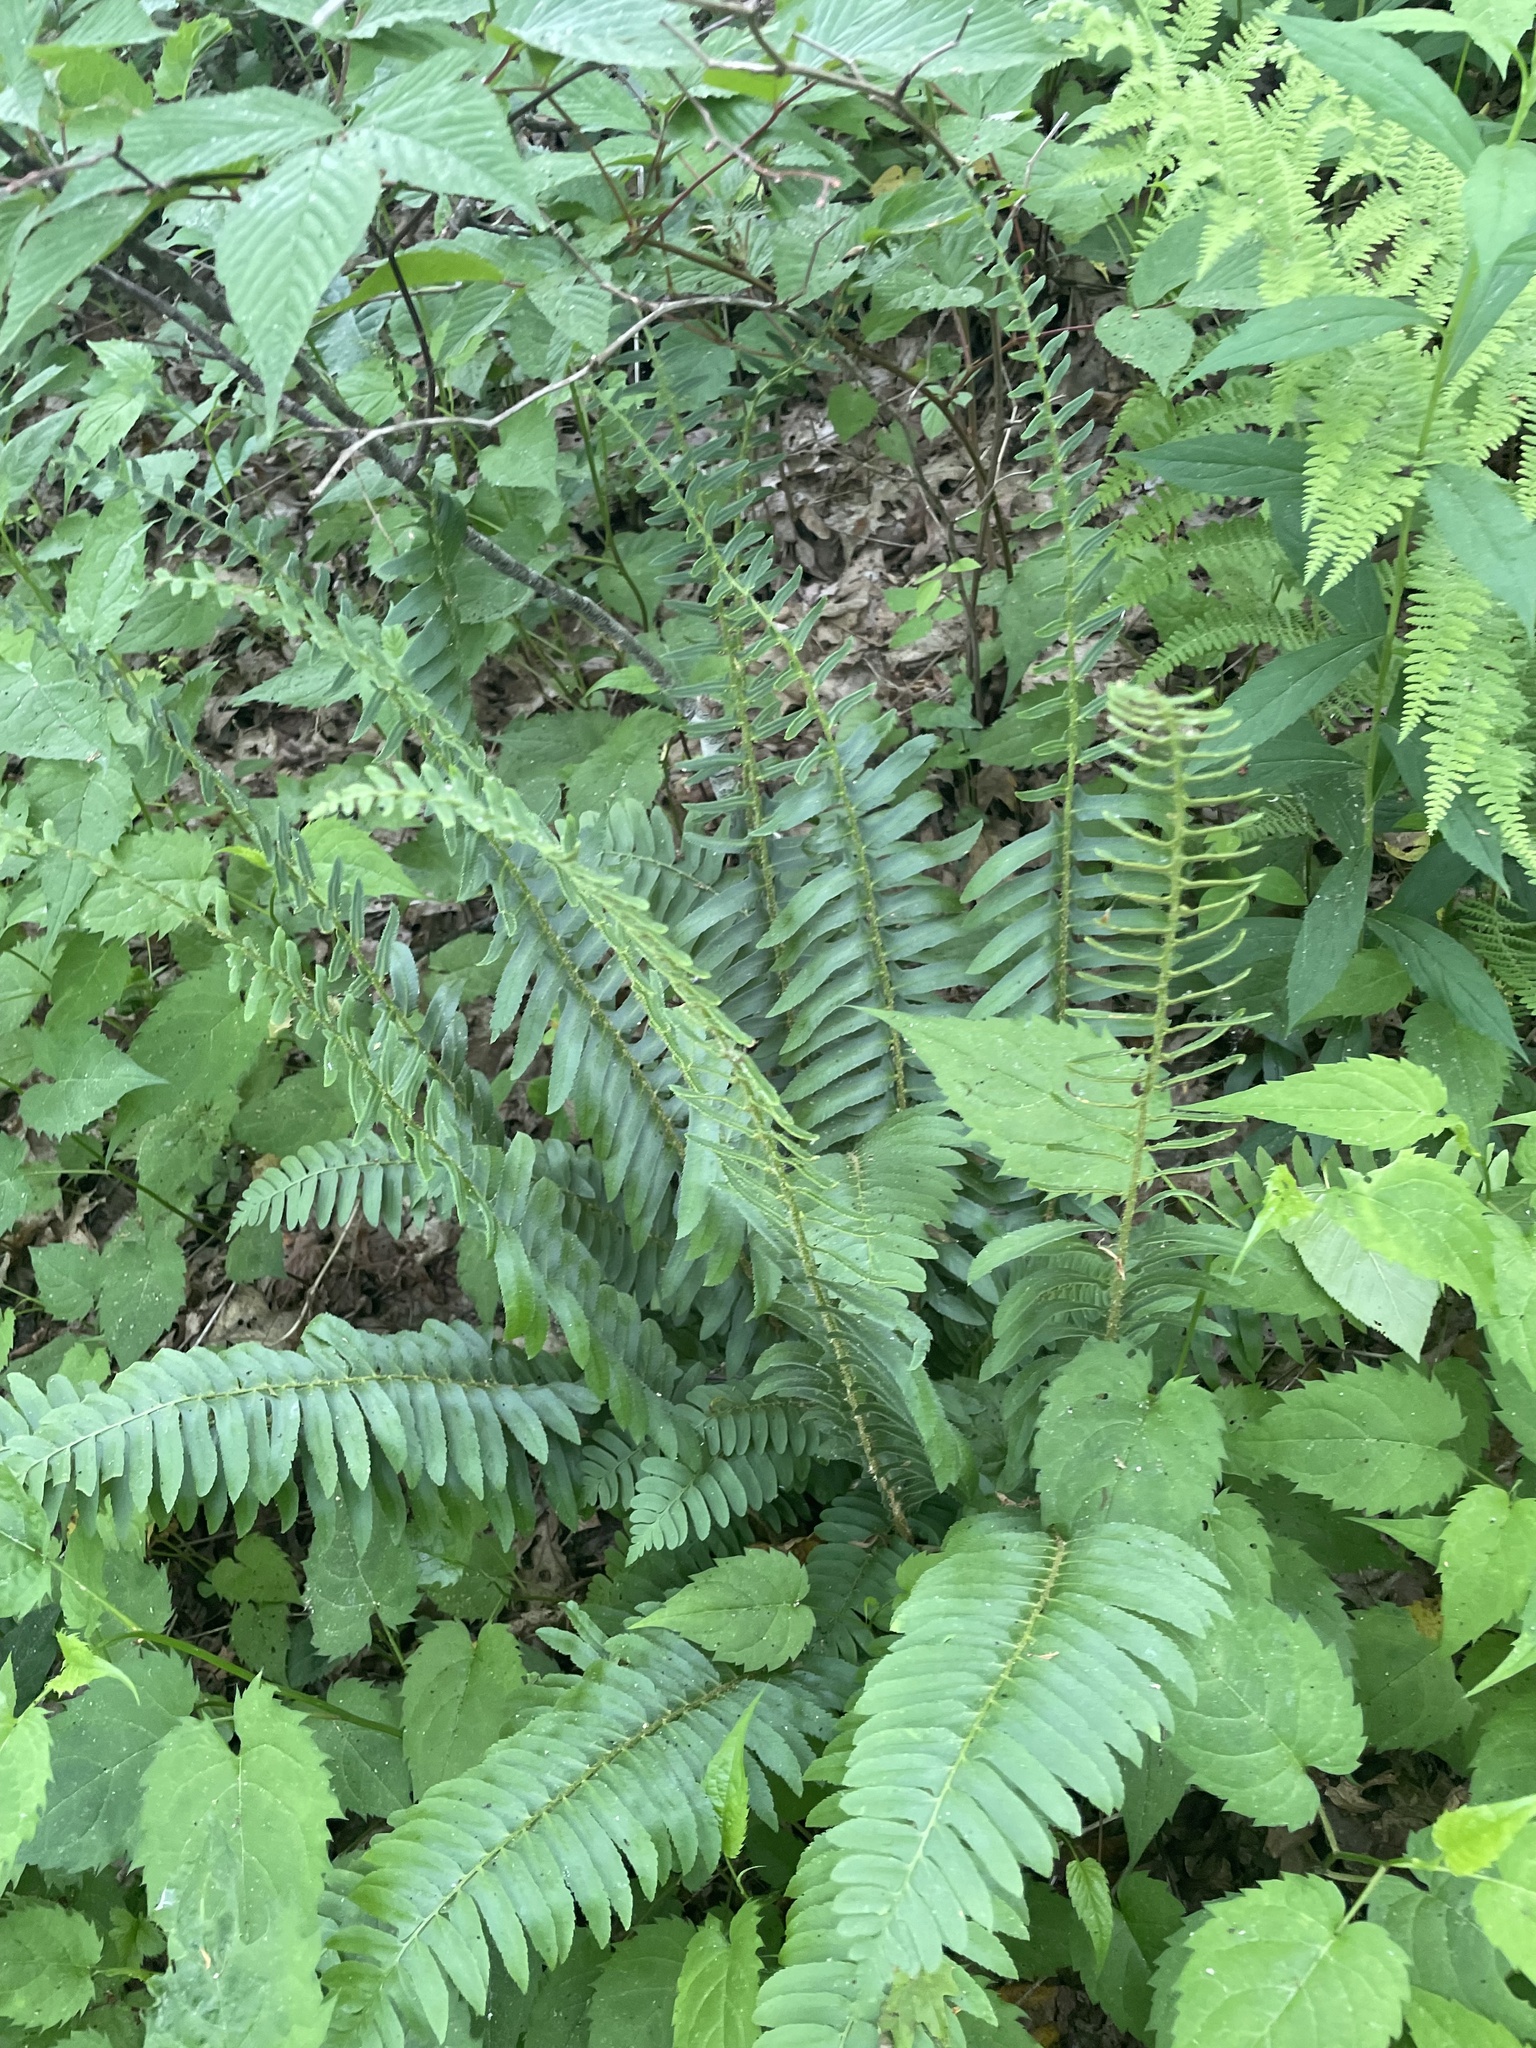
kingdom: Plantae
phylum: Tracheophyta
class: Polypodiopsida
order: Polypodiales
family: Dryopteridaceae
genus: Polystichum
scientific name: Polystichum acrostichoides
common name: Christmas fern
